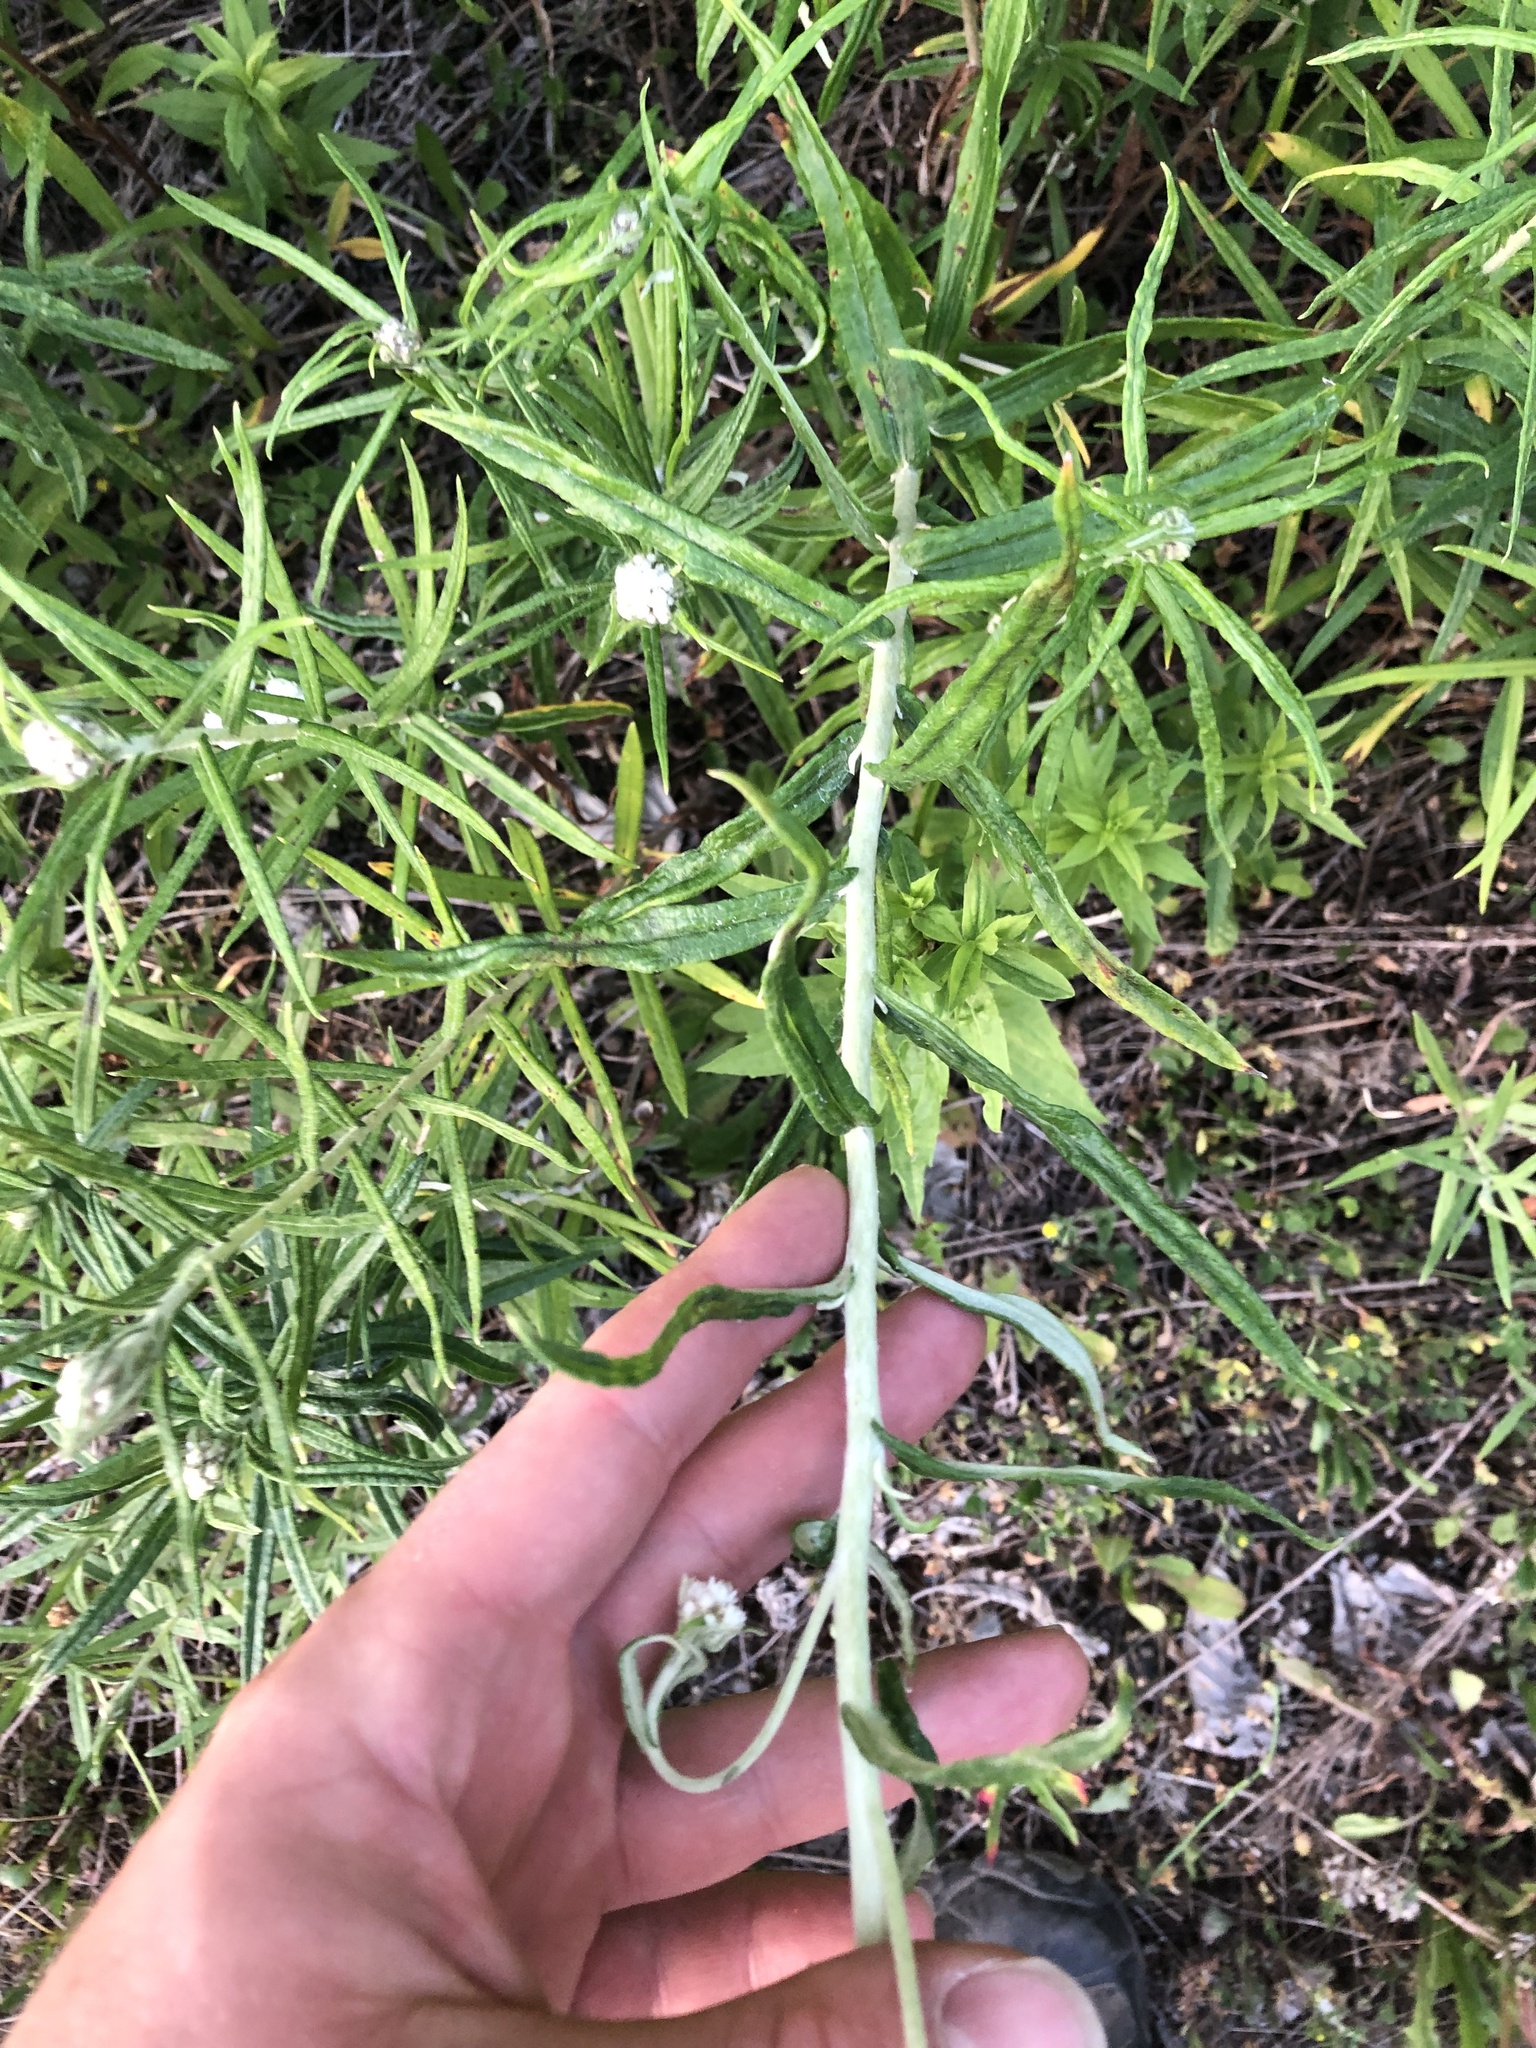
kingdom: Plantae
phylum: Tracheophyta
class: Magnoliopsida
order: Asterales
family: Asteraceae
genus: Anaphalis
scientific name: Anaphalis margaritacea
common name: Pearly everlasting
